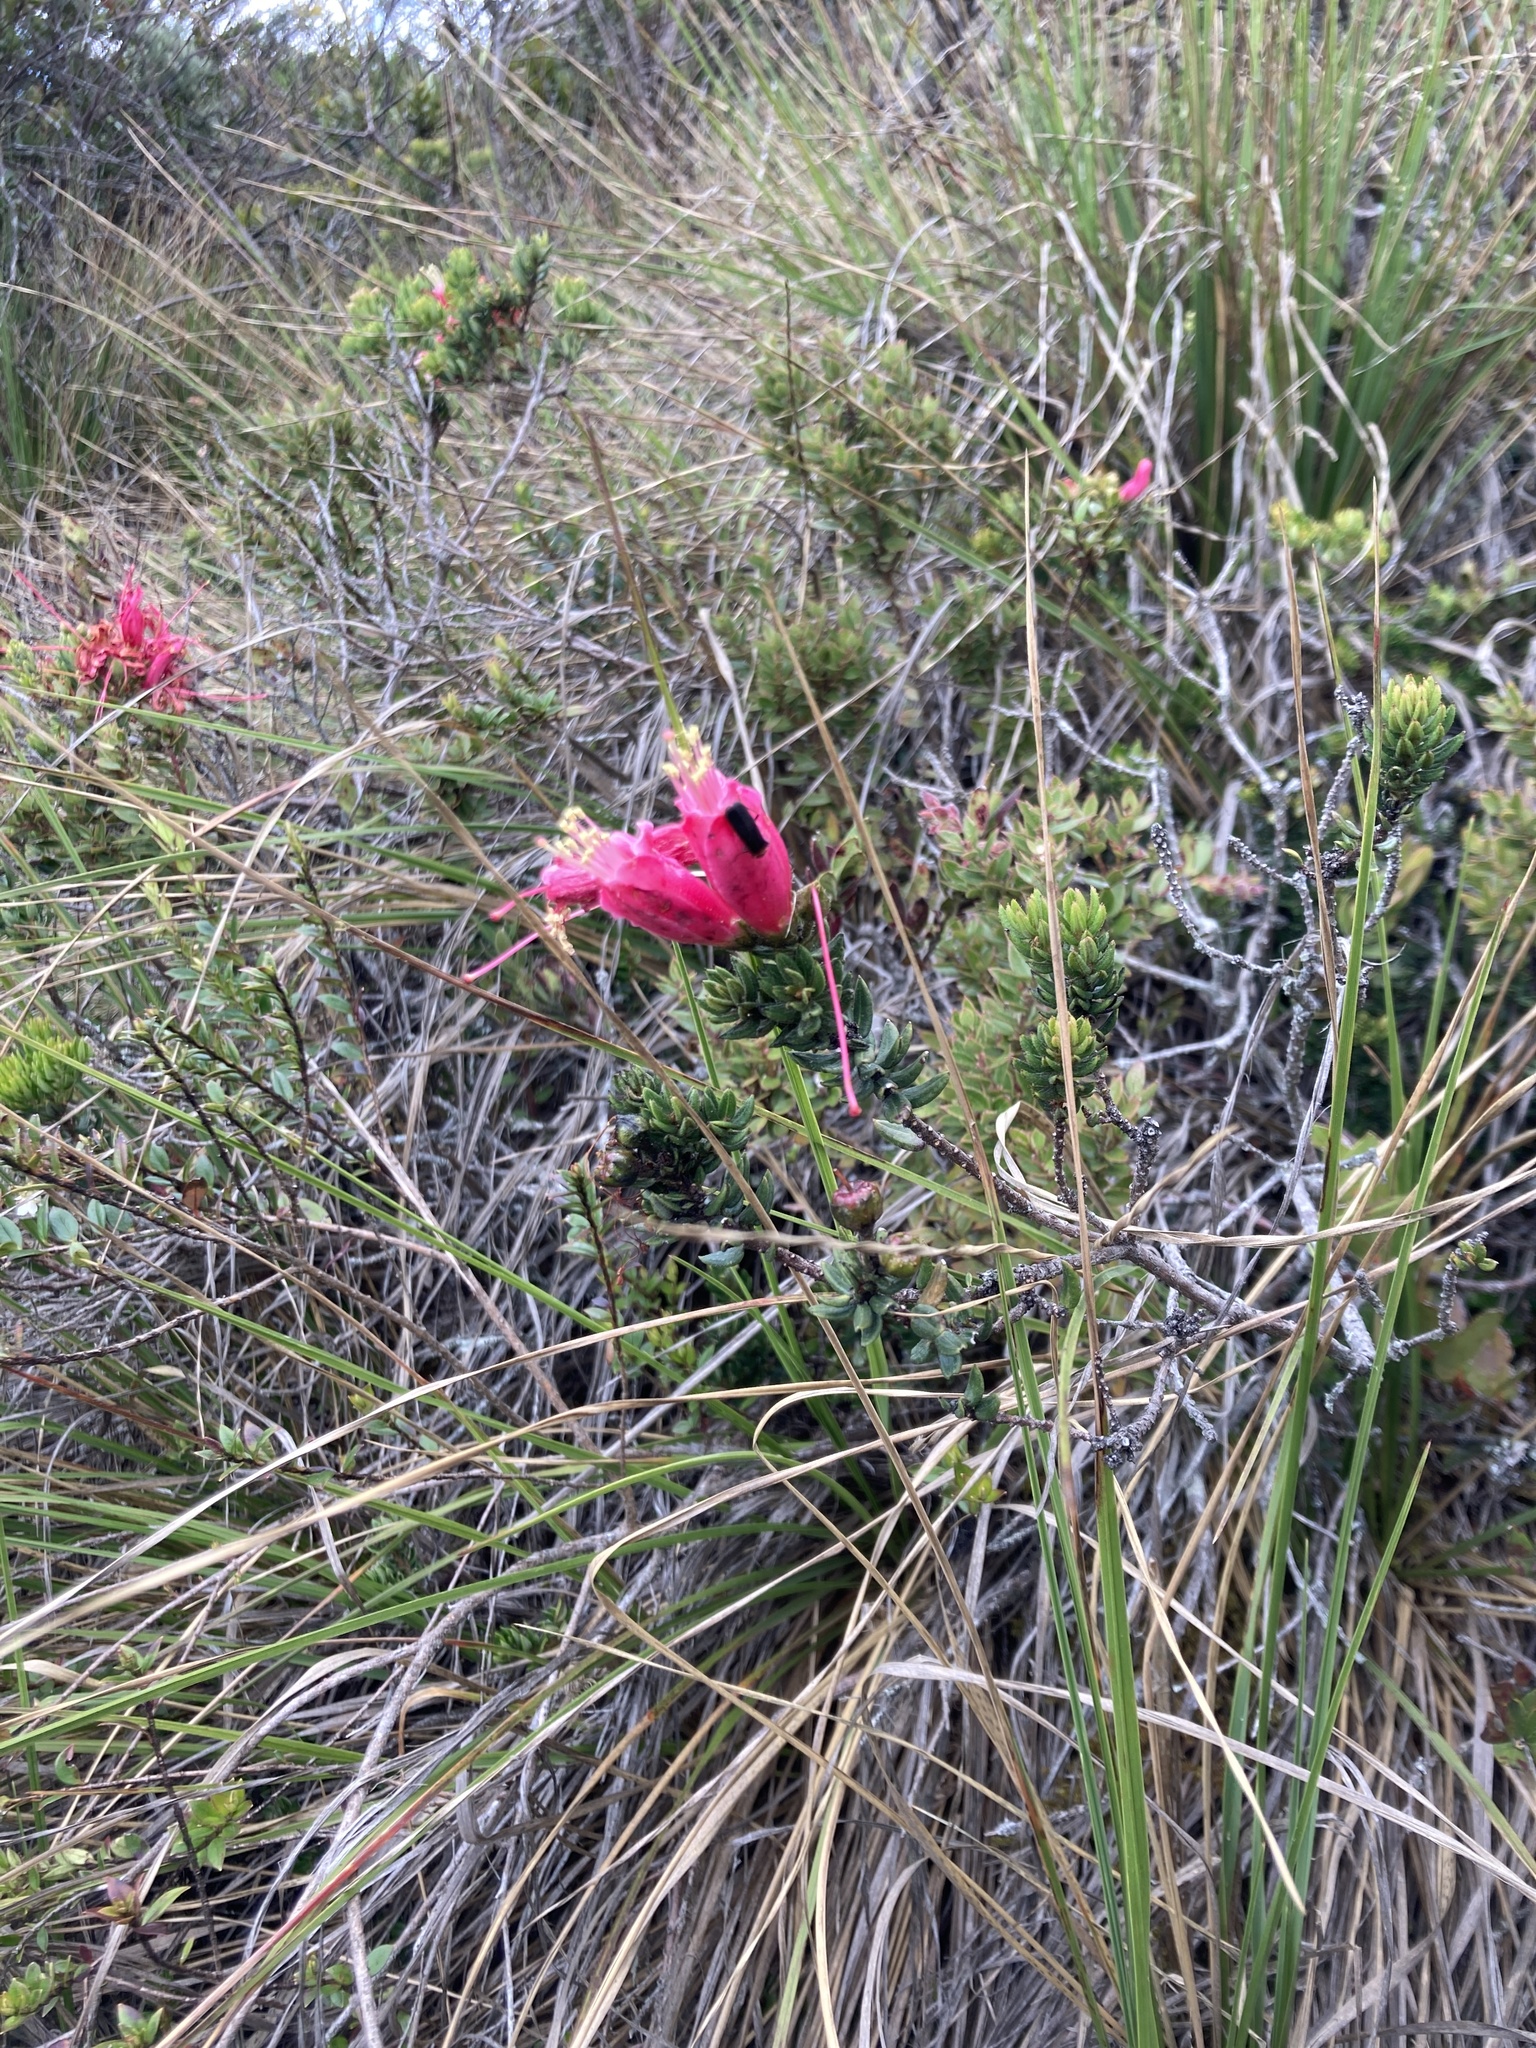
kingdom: Plantae
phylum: Tracheophyta
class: Magnoliopsida
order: Ericales
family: Ericaceae
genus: Bejaria
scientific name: Bejaria resinosa
